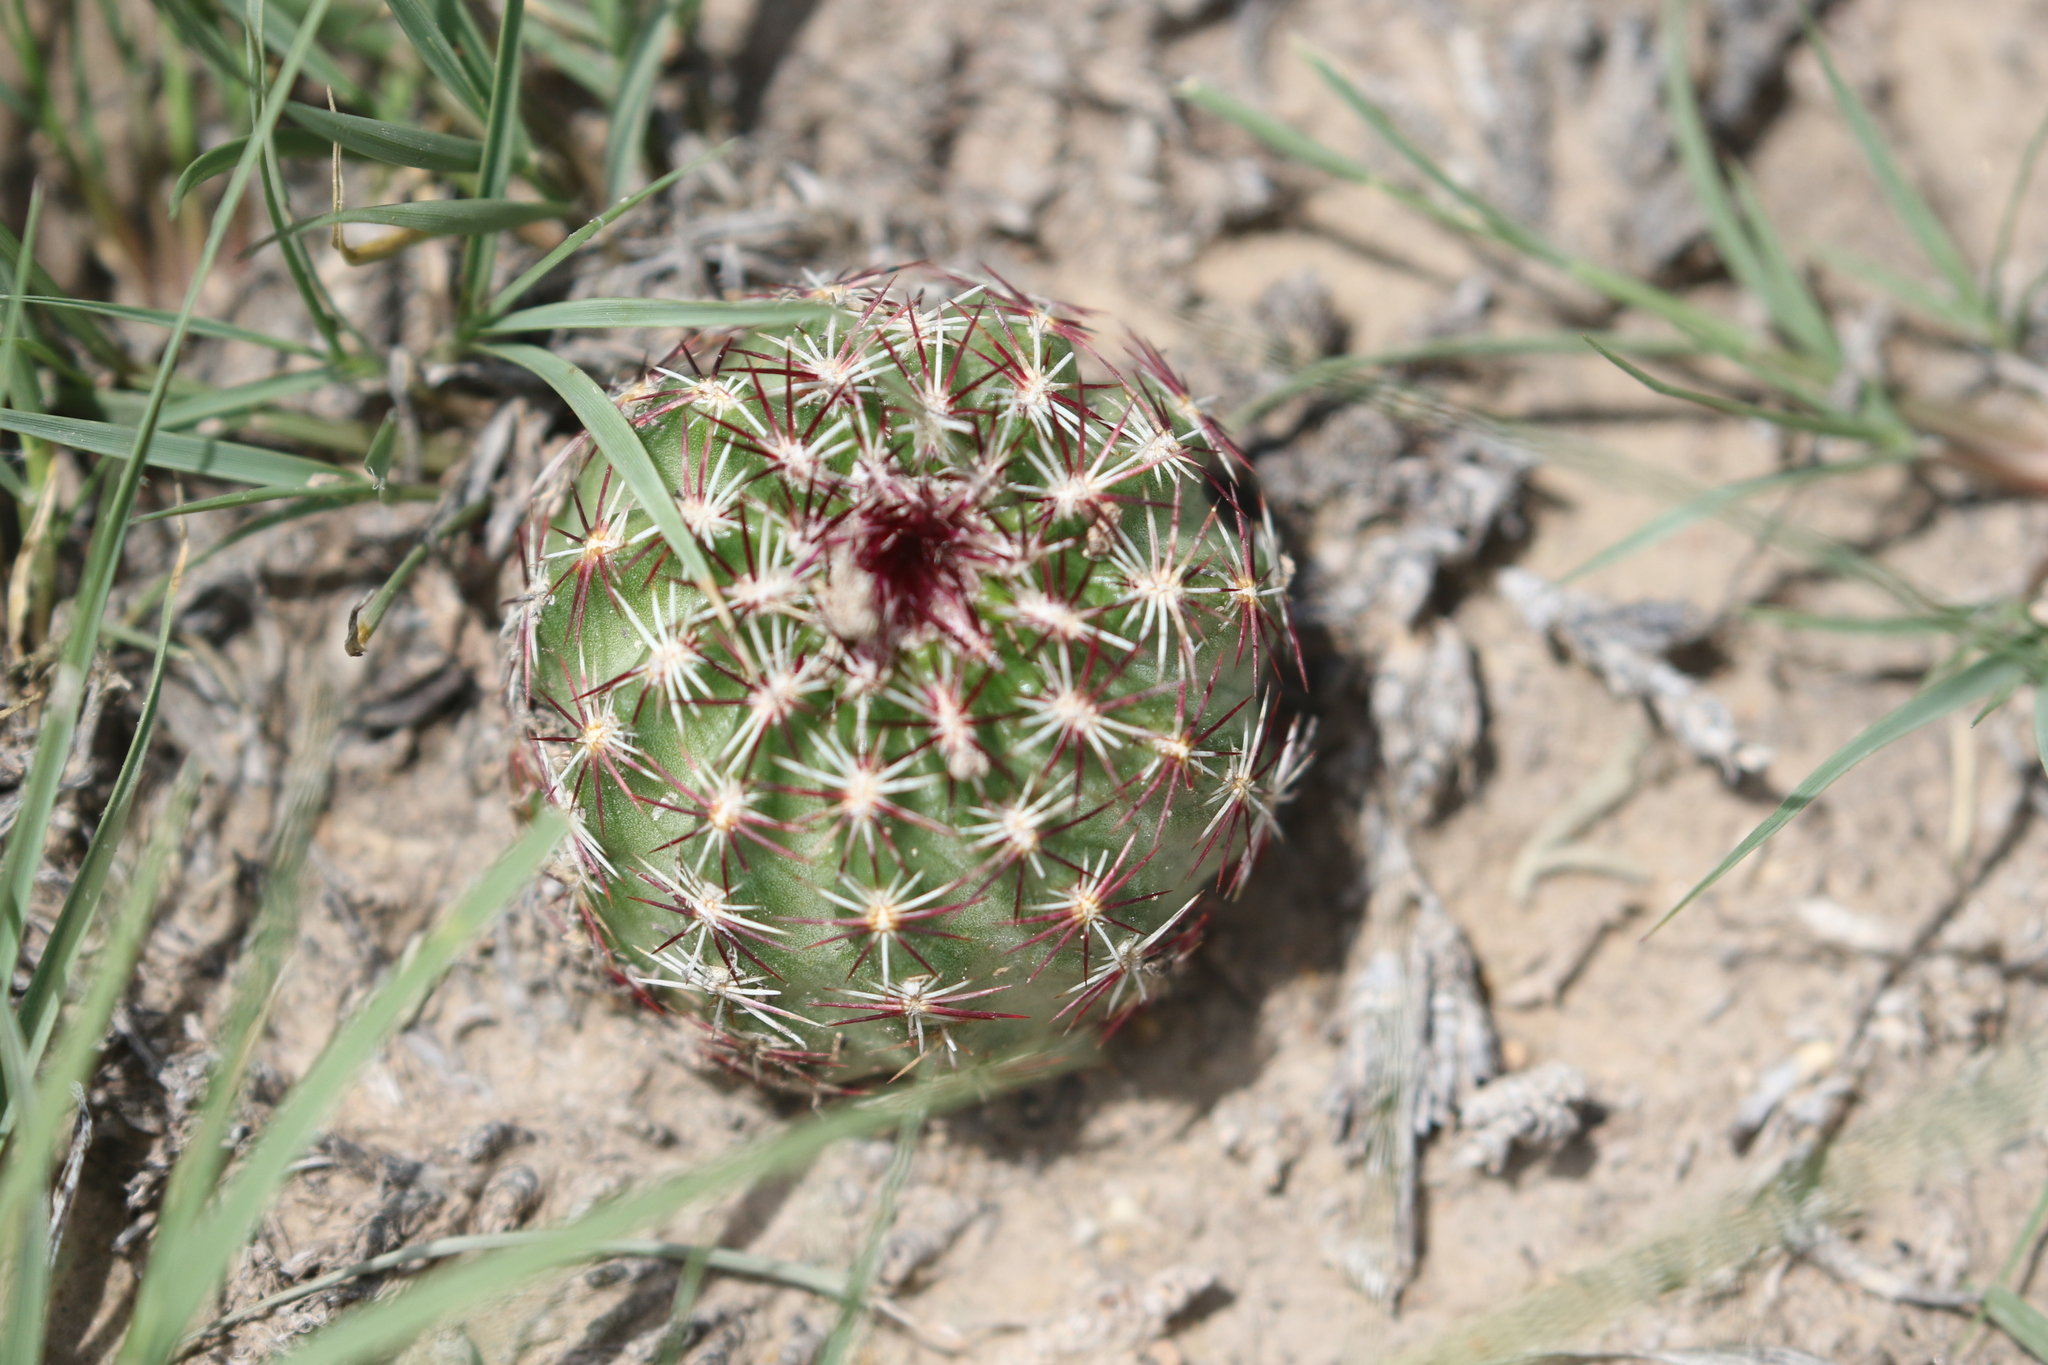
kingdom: Plantae
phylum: Tracheophyta
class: Magnoliopsida
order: Caryophyllales
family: Cactaceae
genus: Echinocereus
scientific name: Echinocereus viridiflorus
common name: Nylon hedgehog cactus
